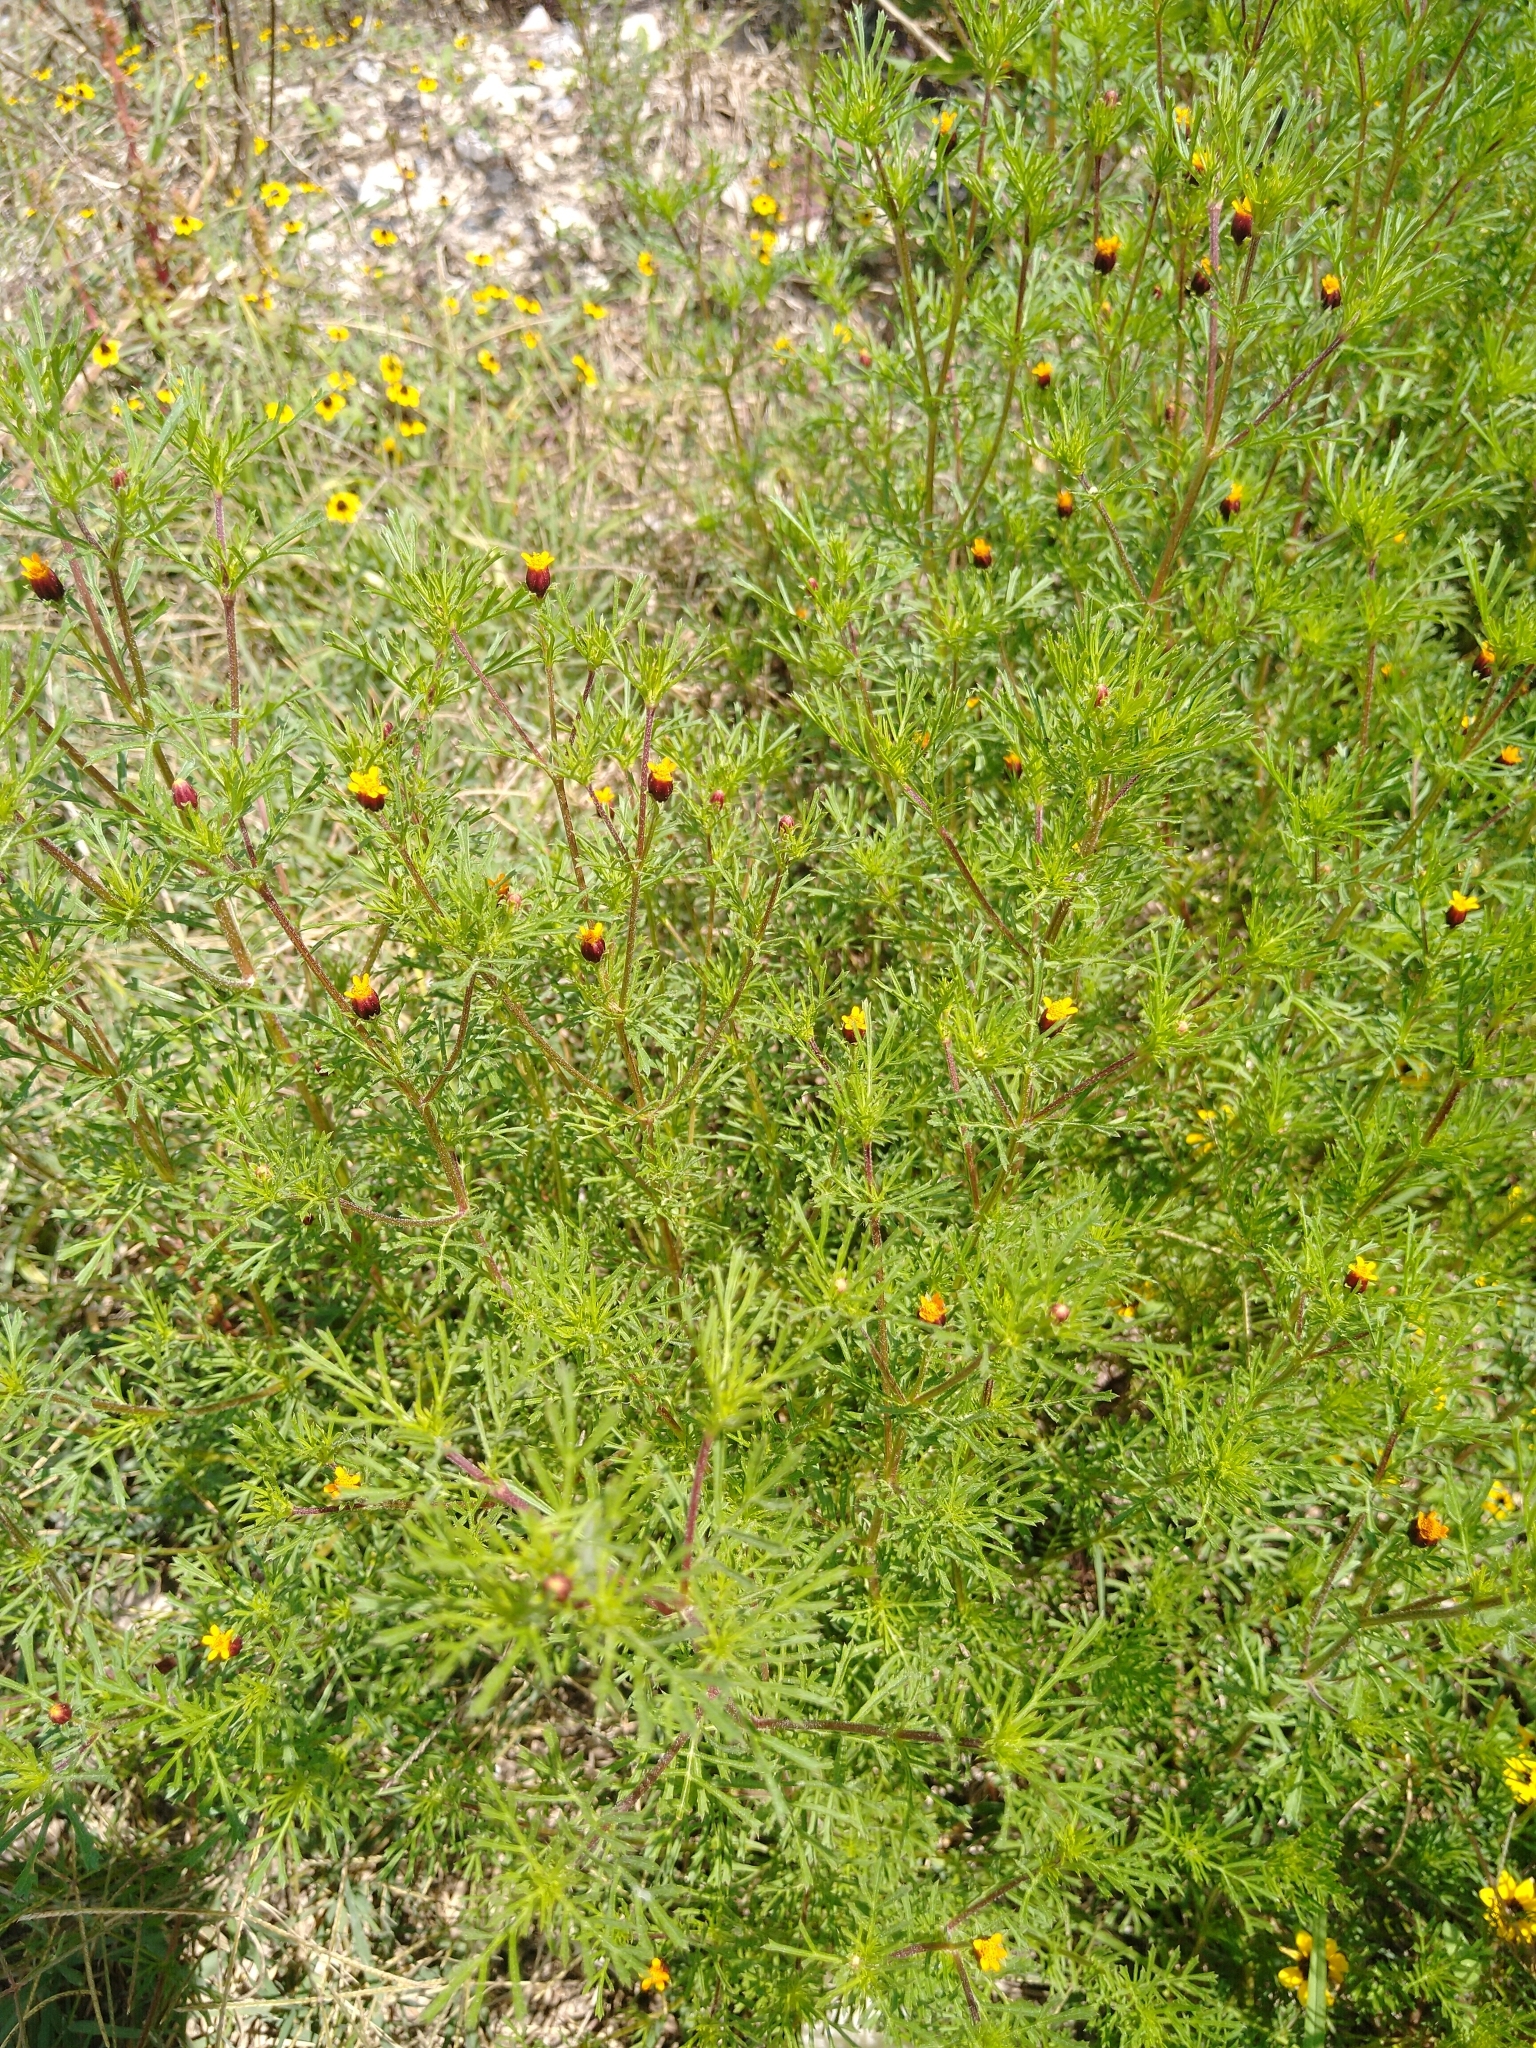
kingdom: Plantae
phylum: Tracheophyta
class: Magnoliopsida
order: Asterales
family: Asteraceae
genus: Dyssodia
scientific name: Dyssodia papposa
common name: Dogweed
